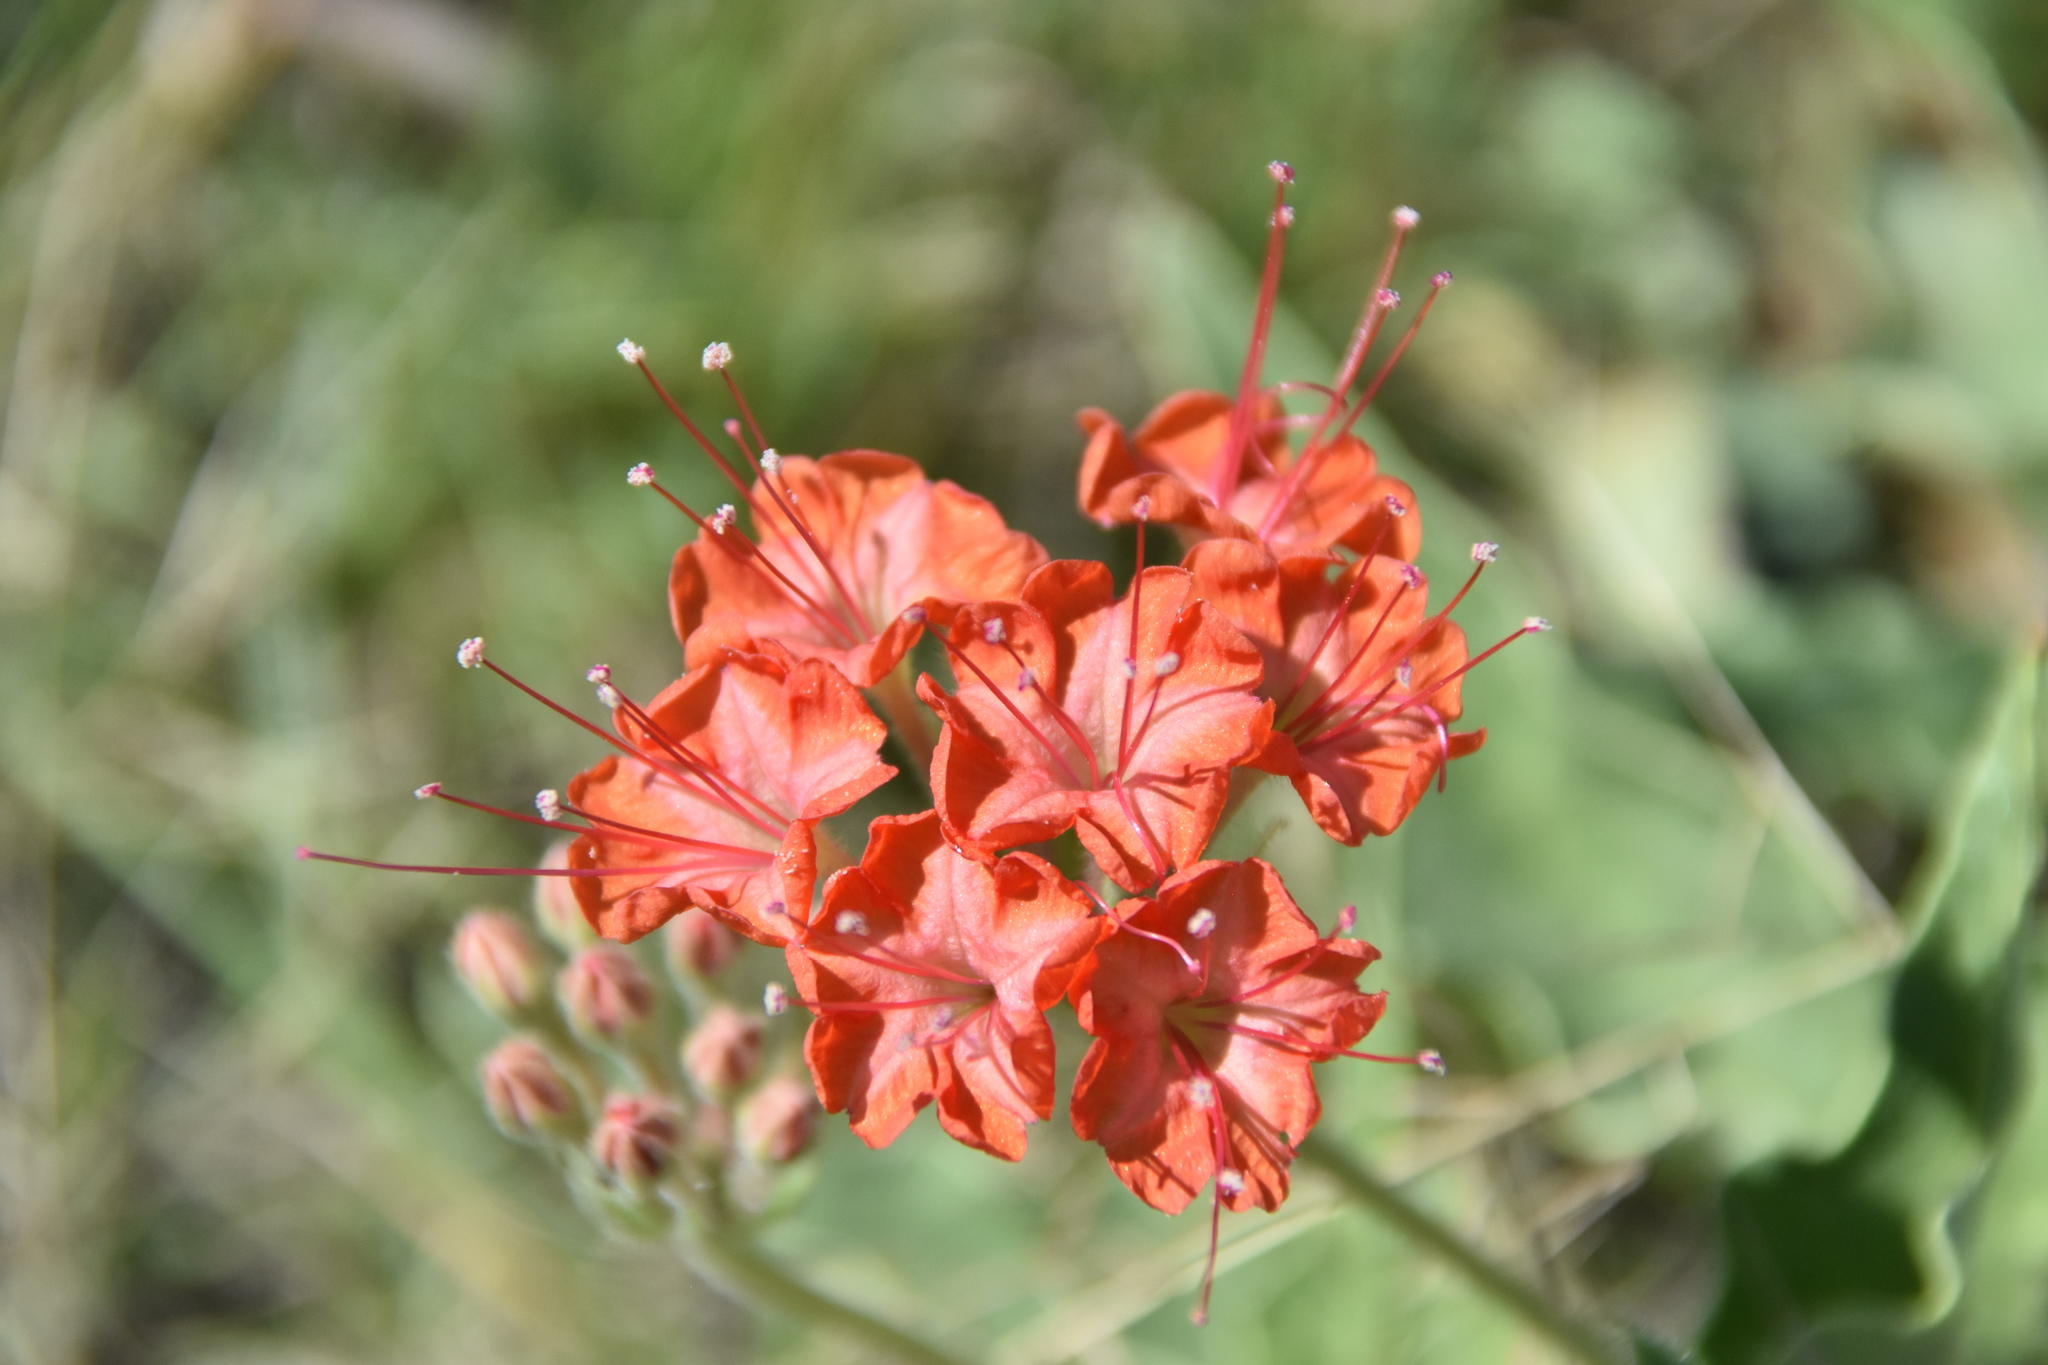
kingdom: Plantae
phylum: Tracheophyta
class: Magnoliopsida
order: Caryophyllales
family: Nyctaginaceae
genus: Nyctaginia
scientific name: Nyctaginia capitata
